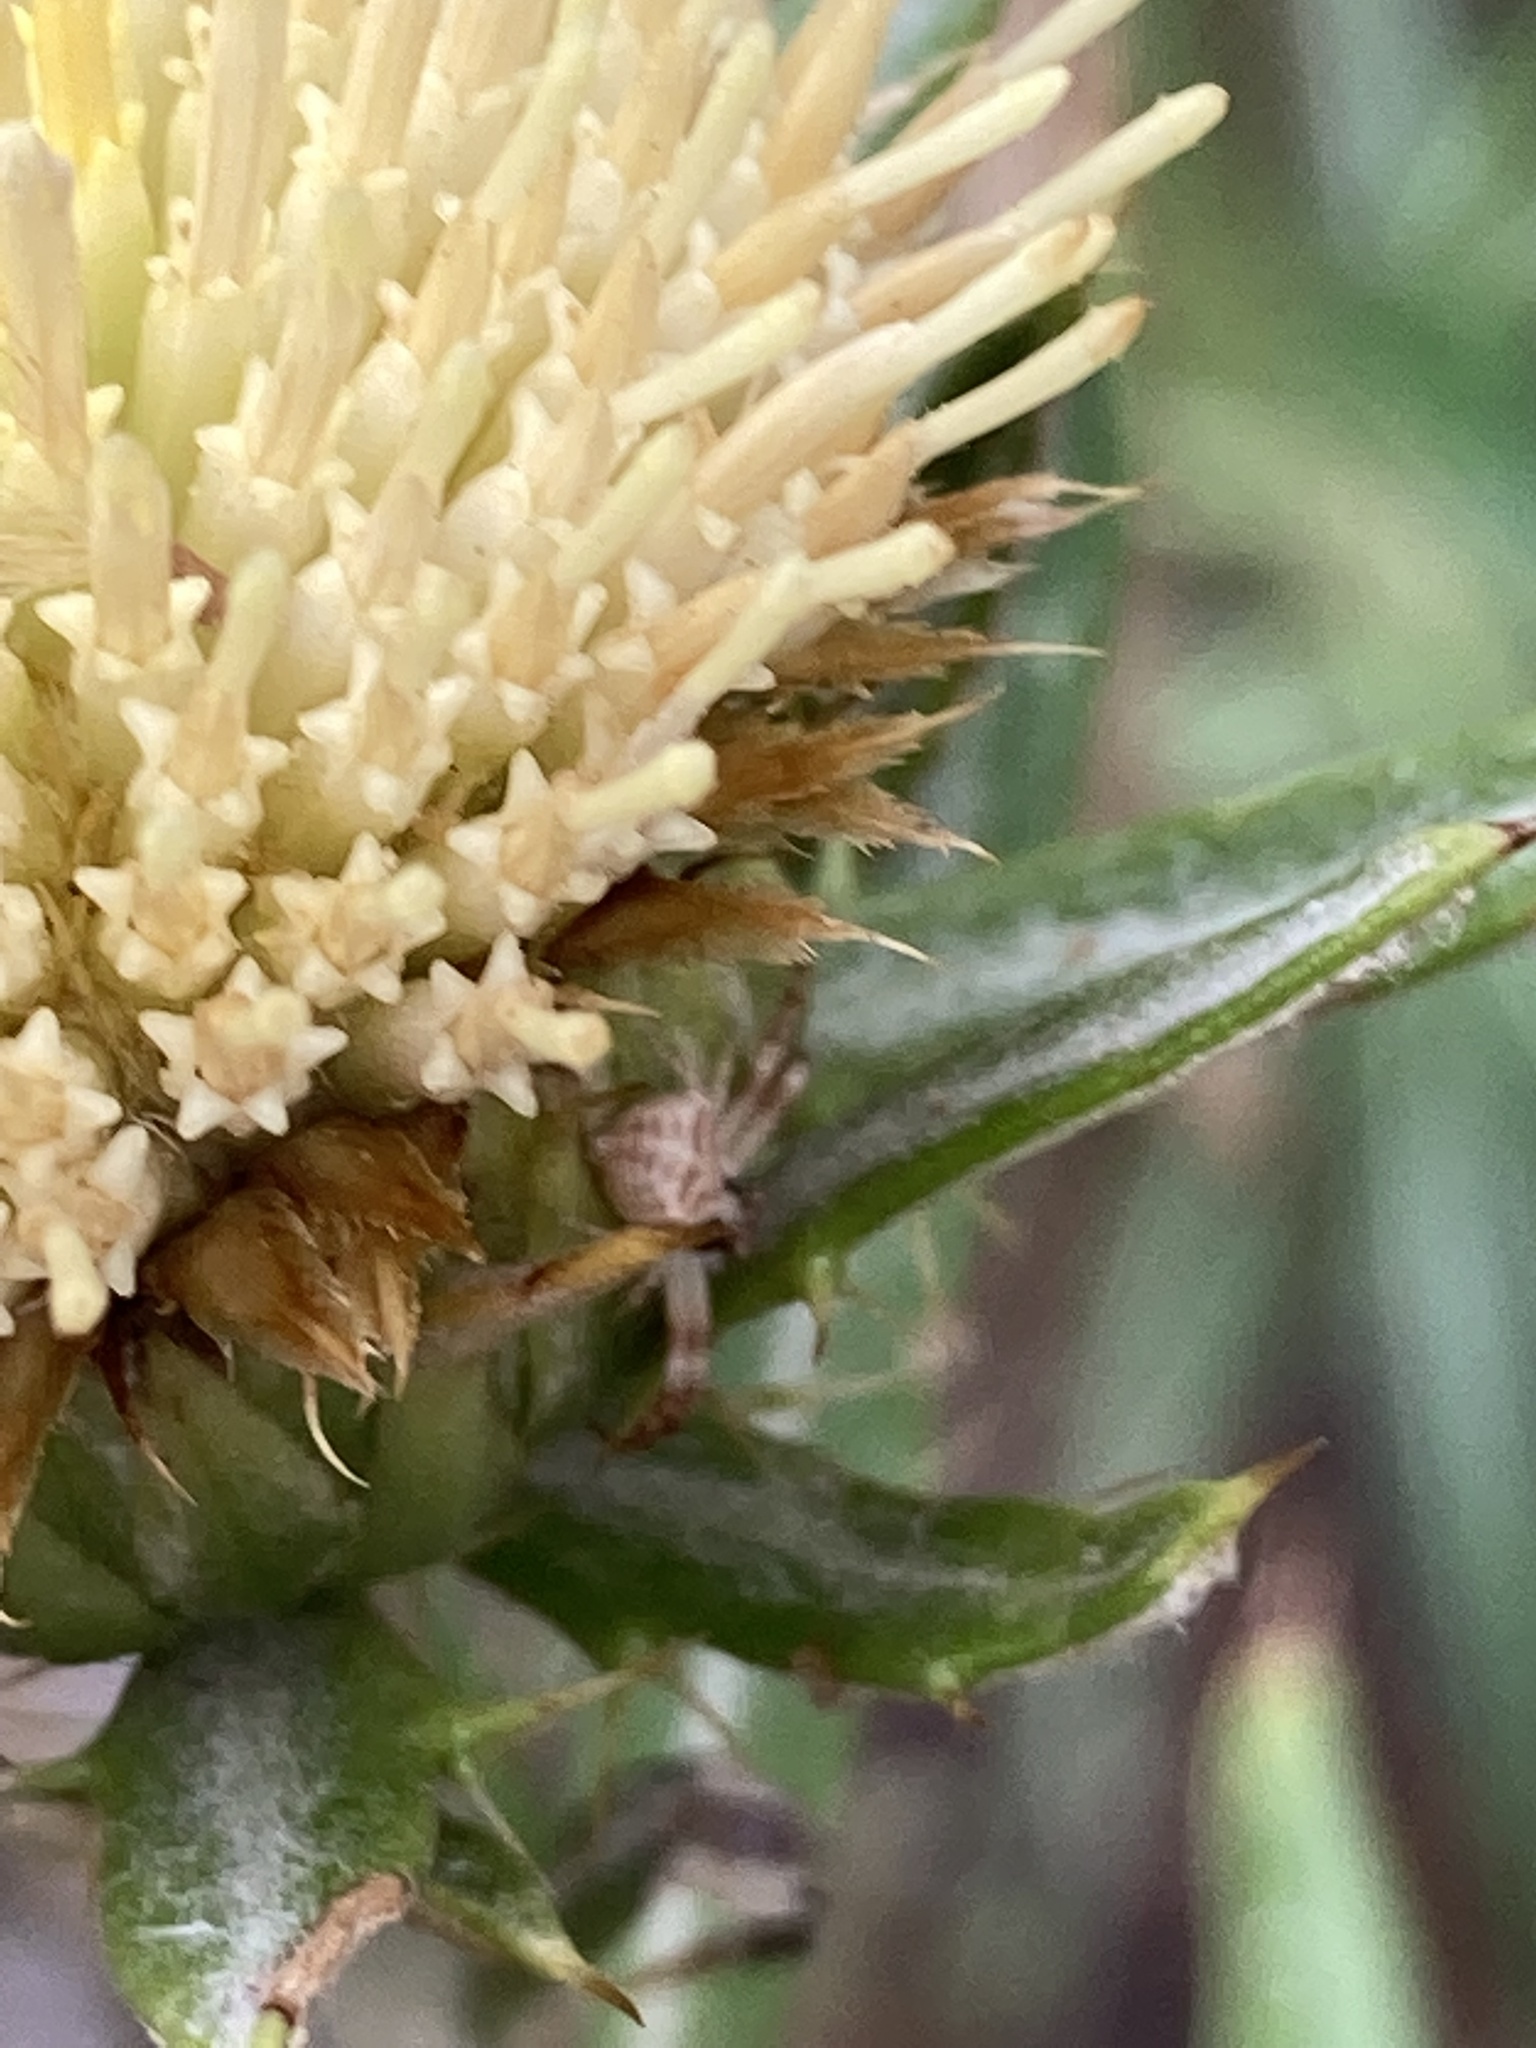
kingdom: Plantae
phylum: Tracheophyta
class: Magnoliopsida
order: Asterales
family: Asteraceae
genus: Carlina
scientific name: Carlina salicifolia
